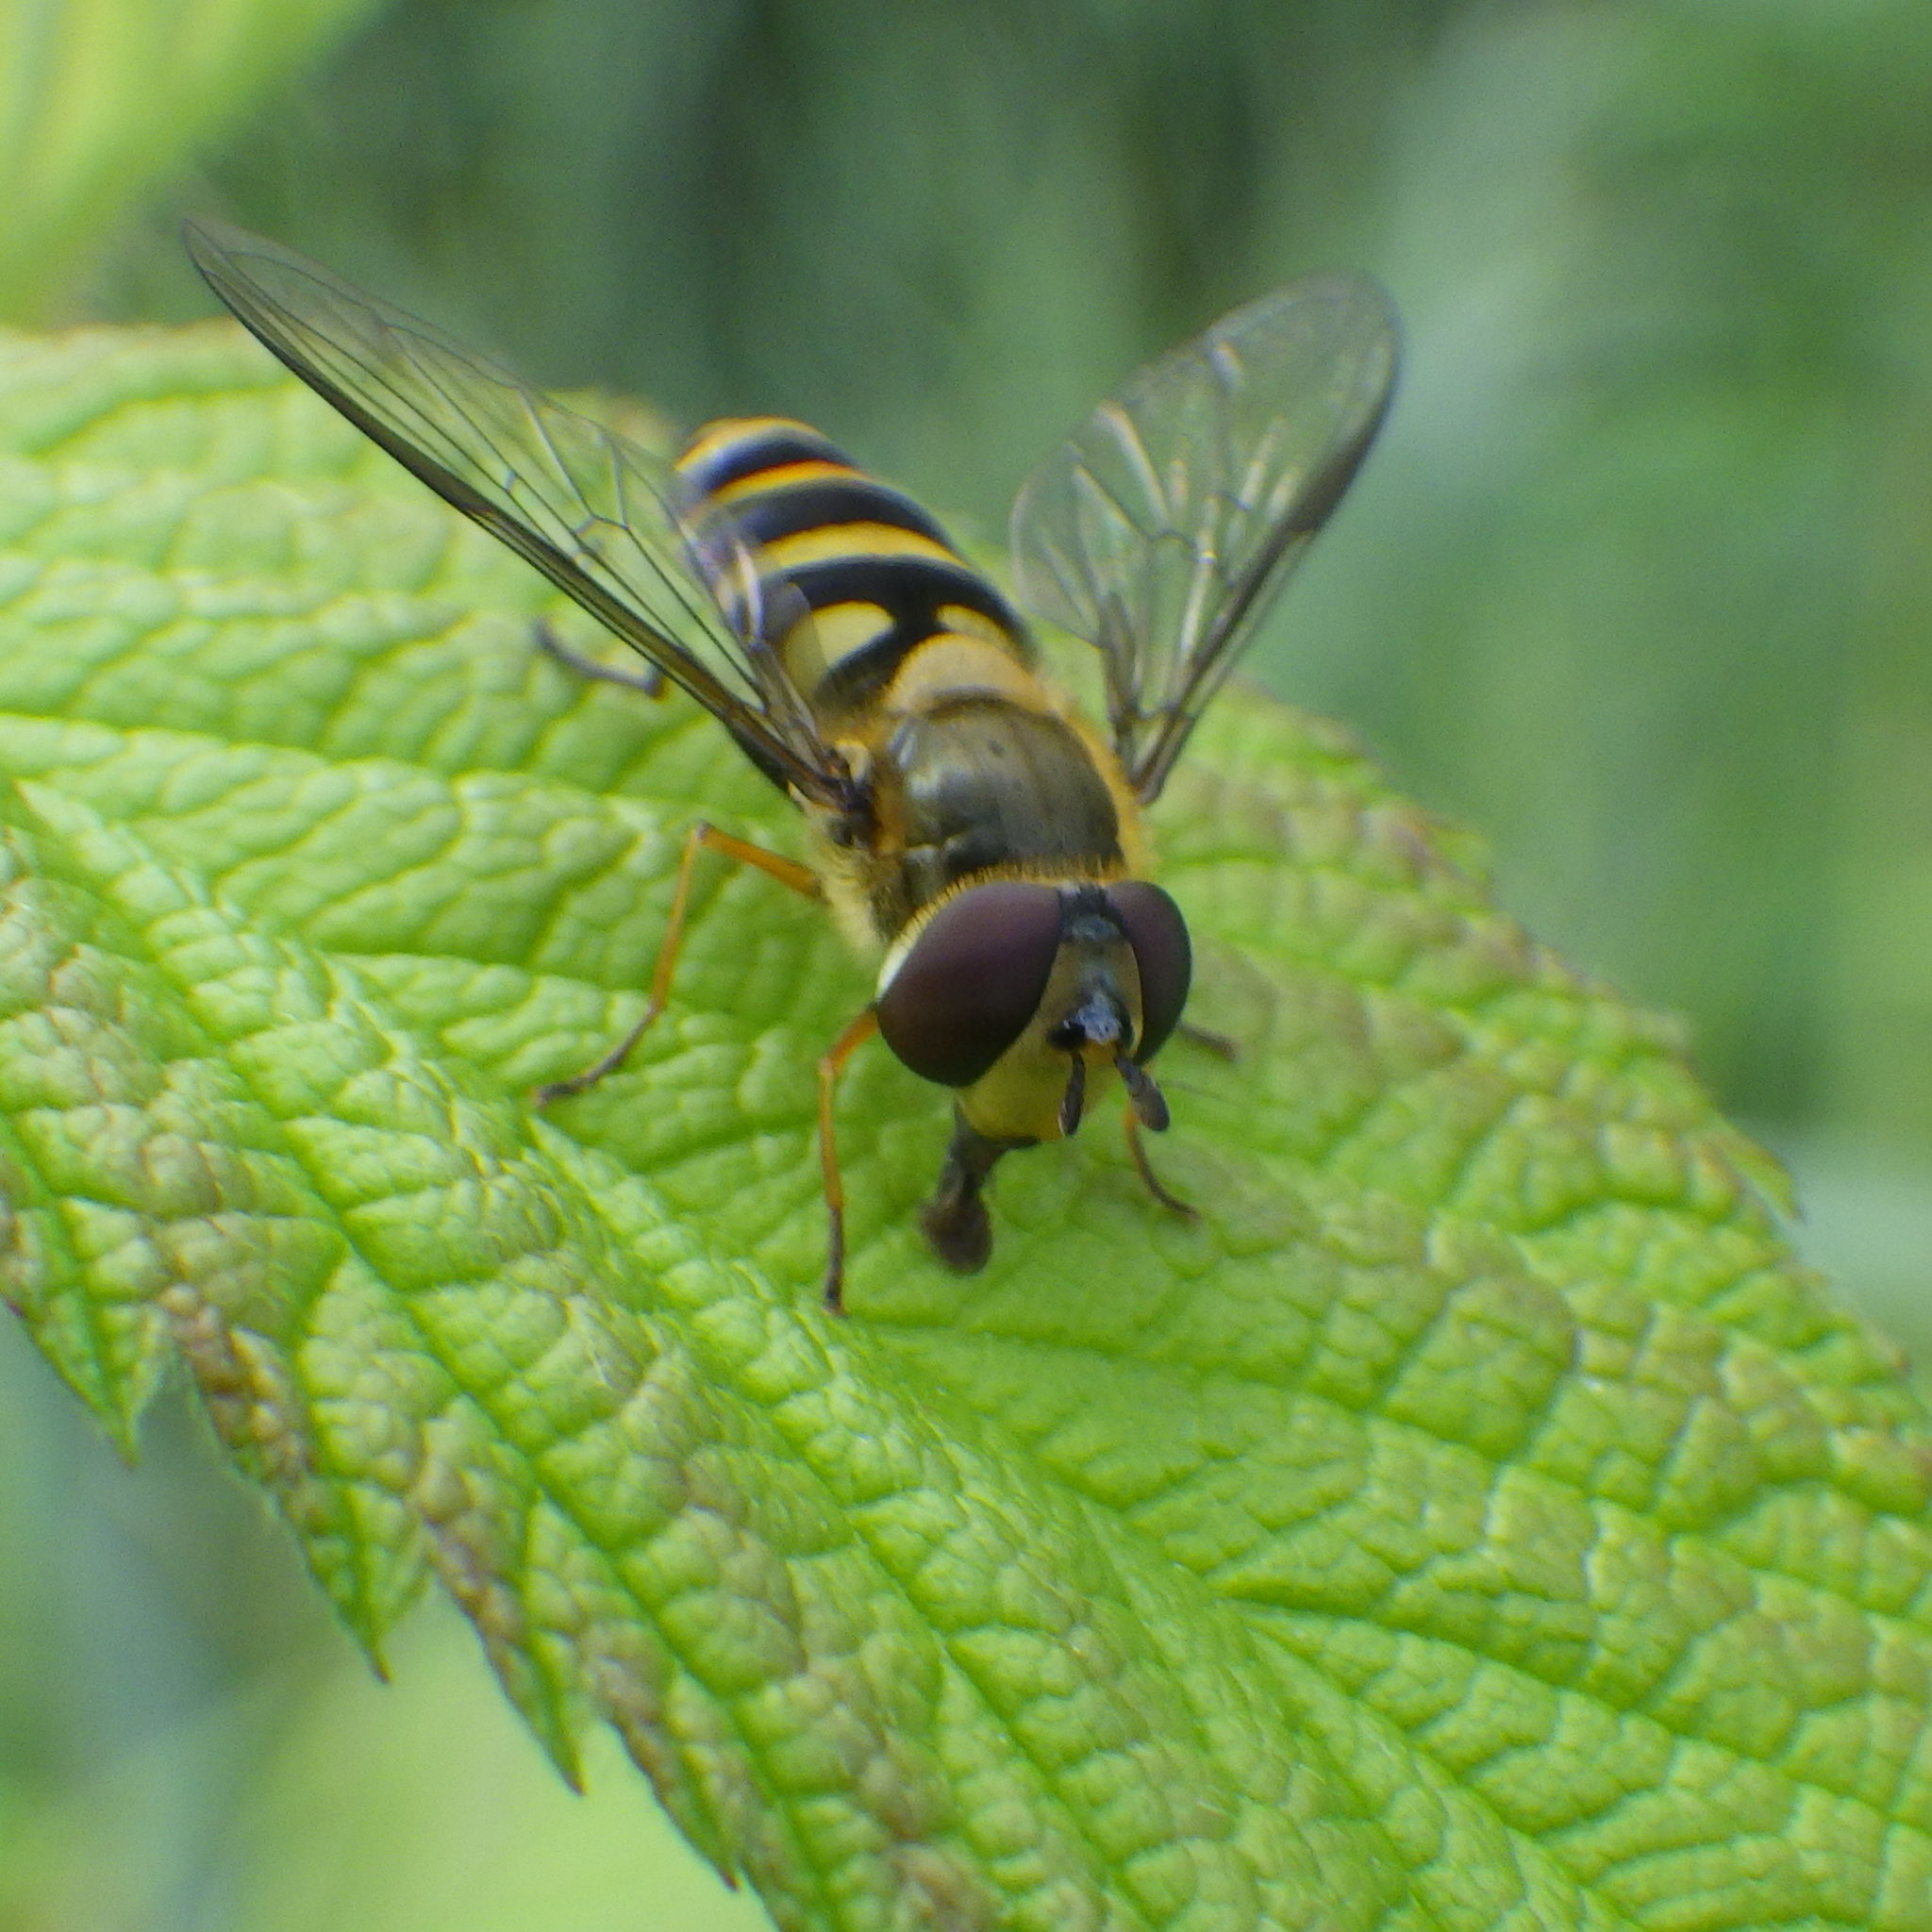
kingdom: Animalia
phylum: Arthropoda
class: Insecta
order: Diptera
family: Syrphidae
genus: Syrphus
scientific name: Syrphus
